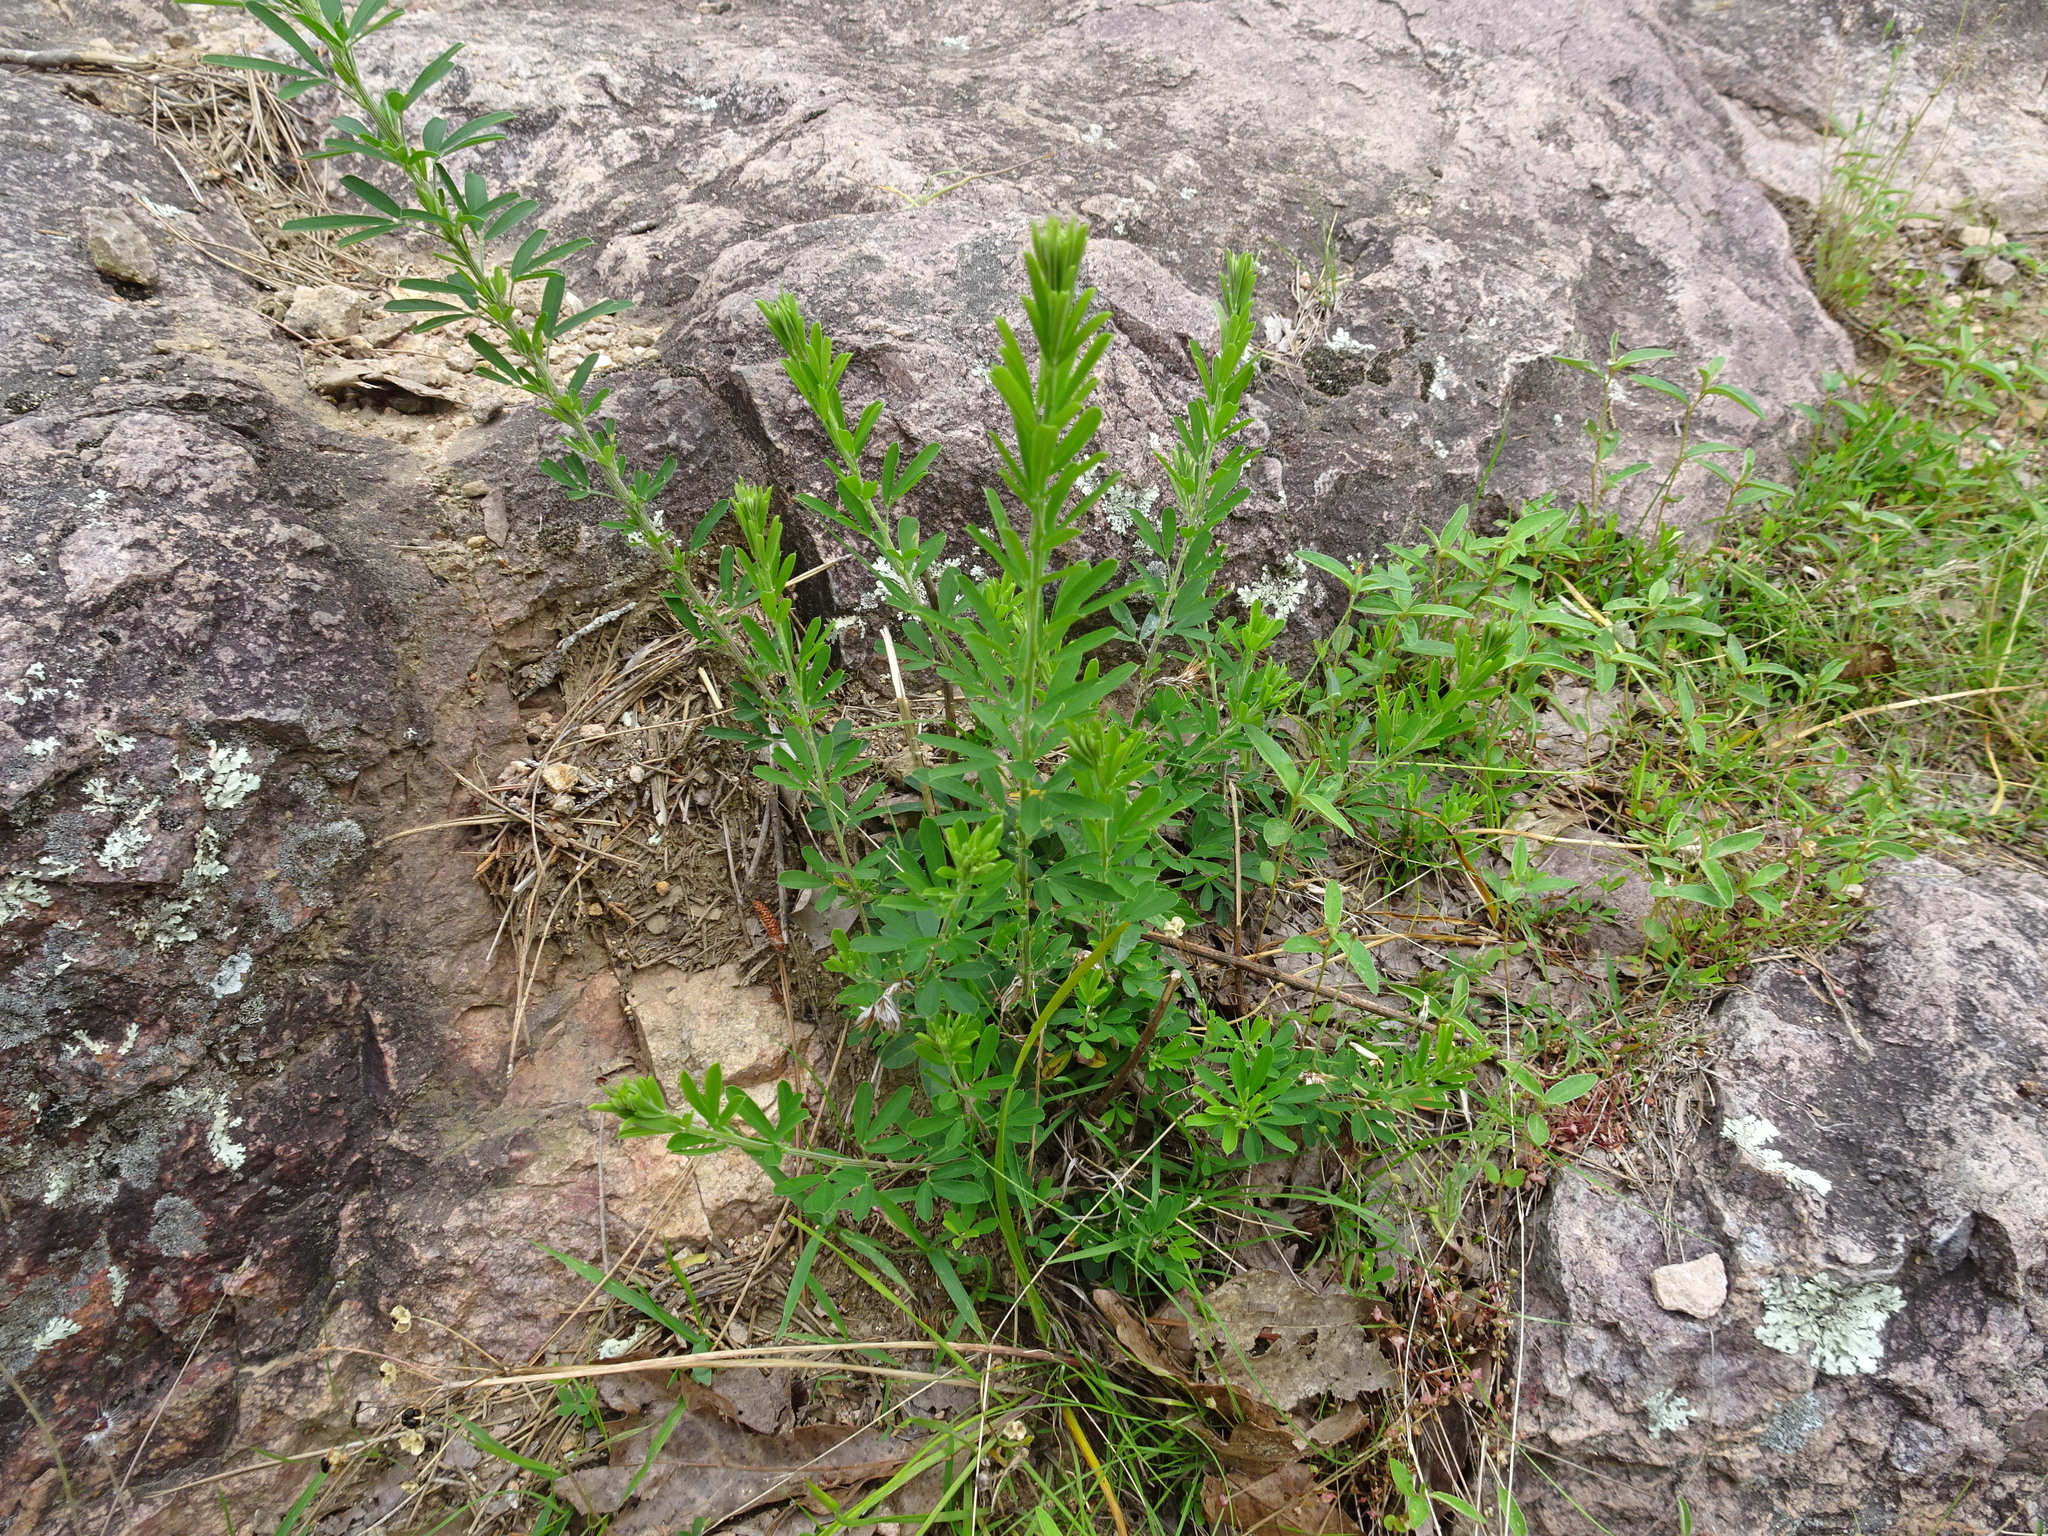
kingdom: Plantae
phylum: Tracheophyta
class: Magnoliopsida
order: Fabales
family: Fabaceae
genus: Lespedeza
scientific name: Lespedeza cuneata
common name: Chinese bush-clover
